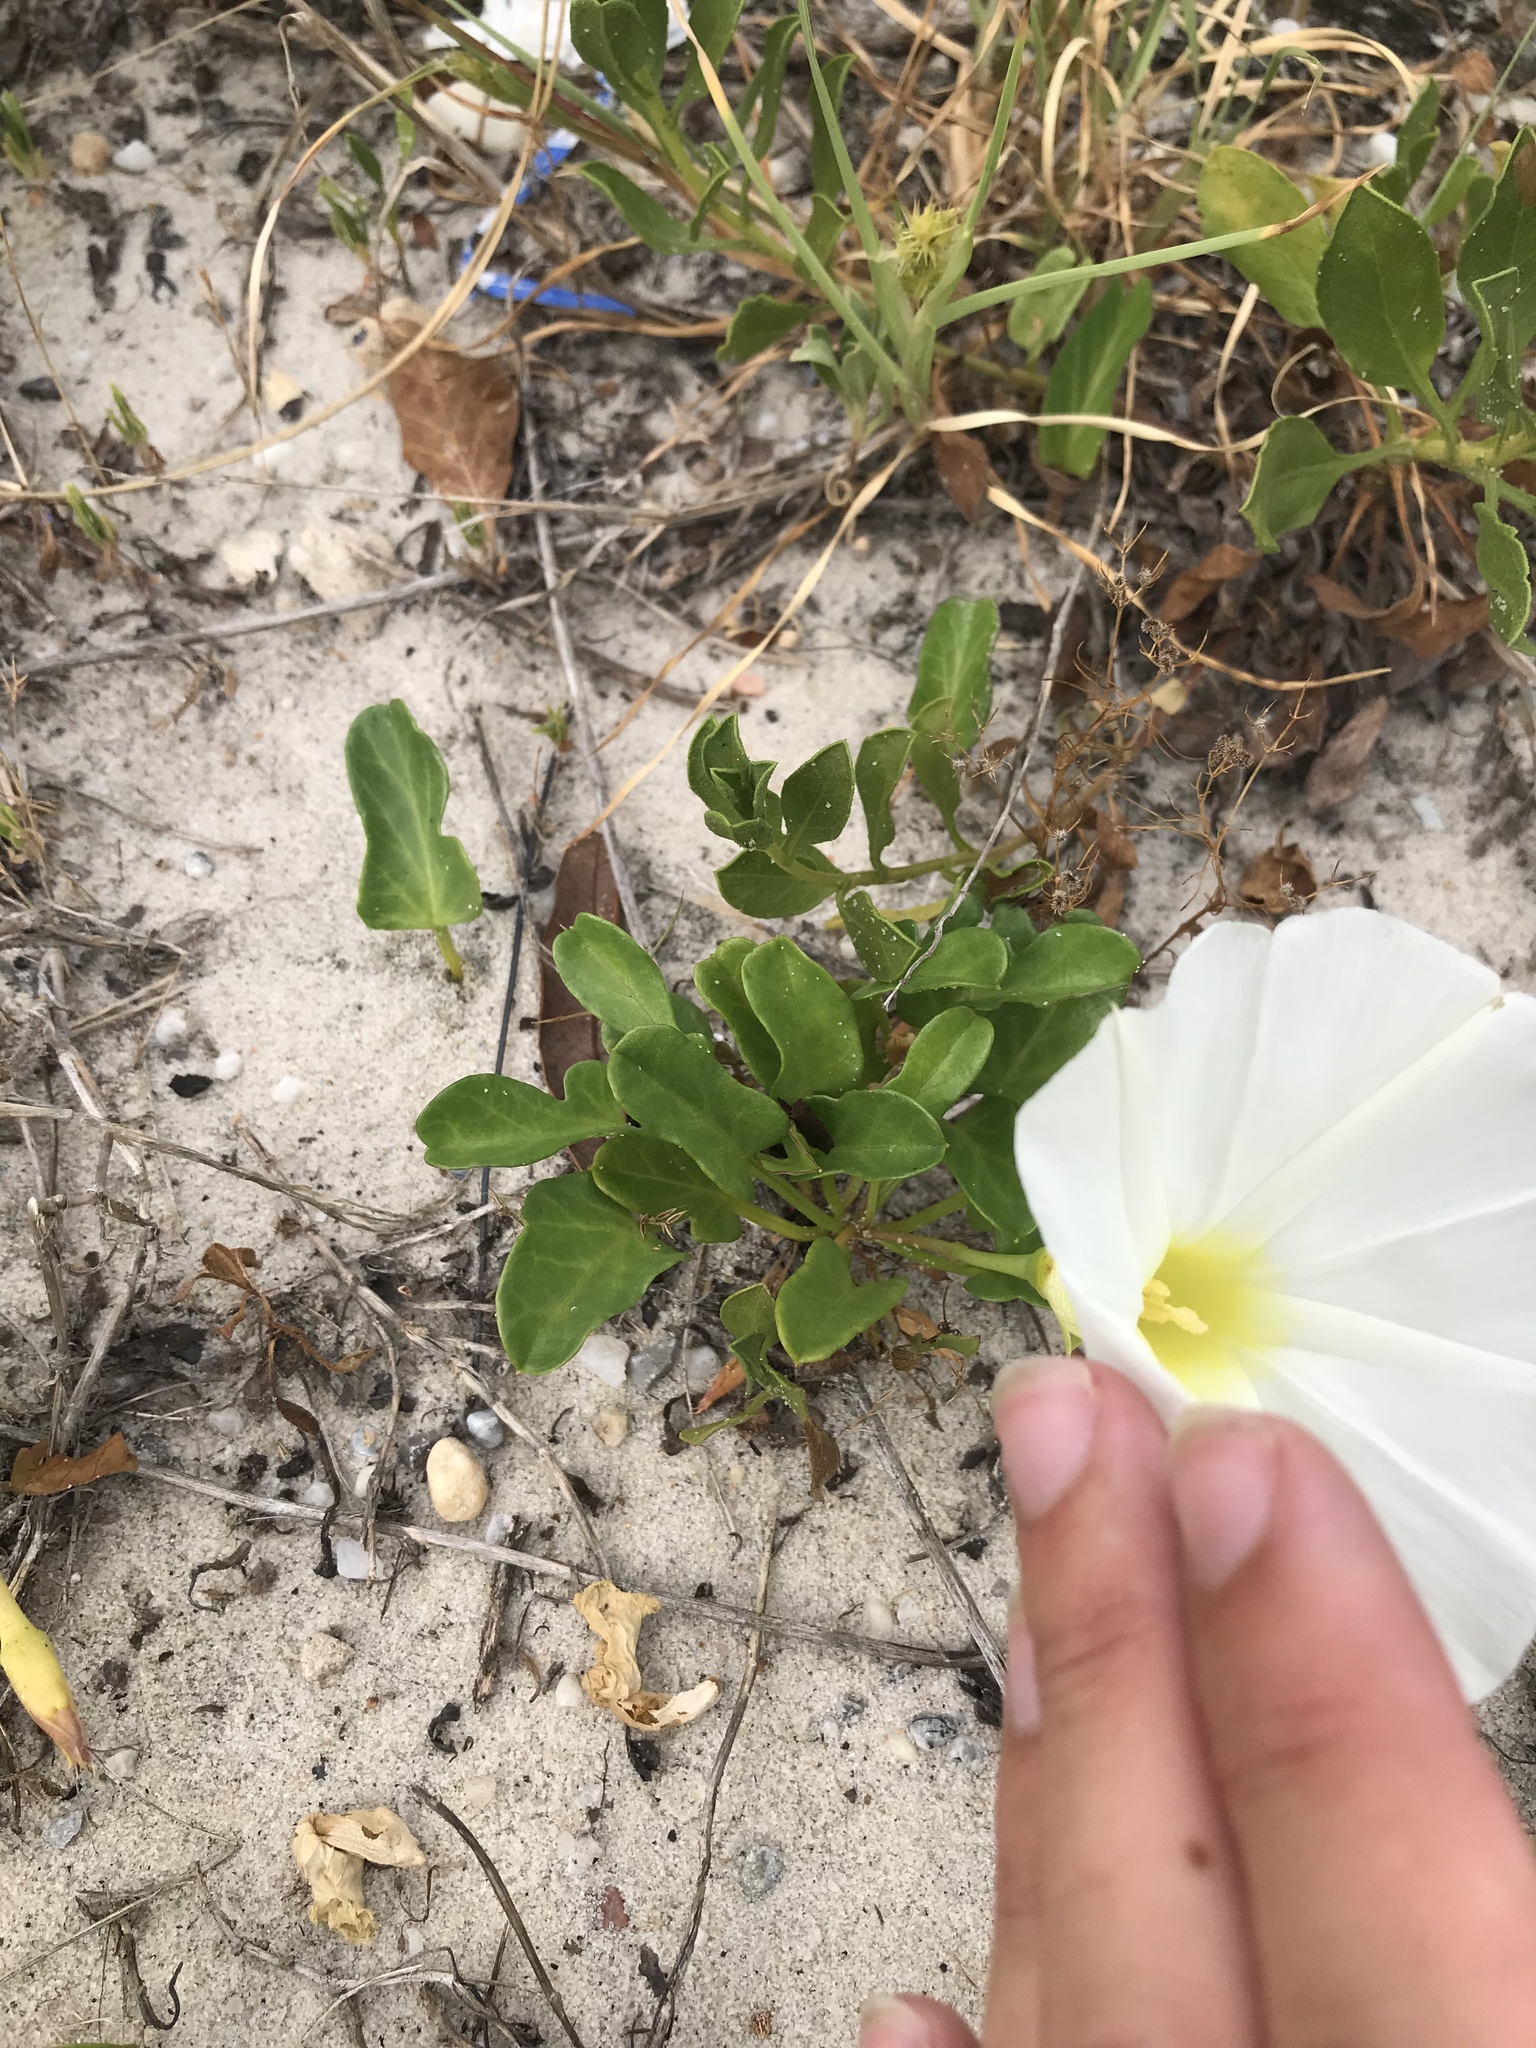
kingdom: Plantae
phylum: Tracheophyta
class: Magnoliopsida
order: Solanales
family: Convolvulaceae
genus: Ipomoea
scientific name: Ipomoea imperati
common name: Fiddle-leaf morning-glory
